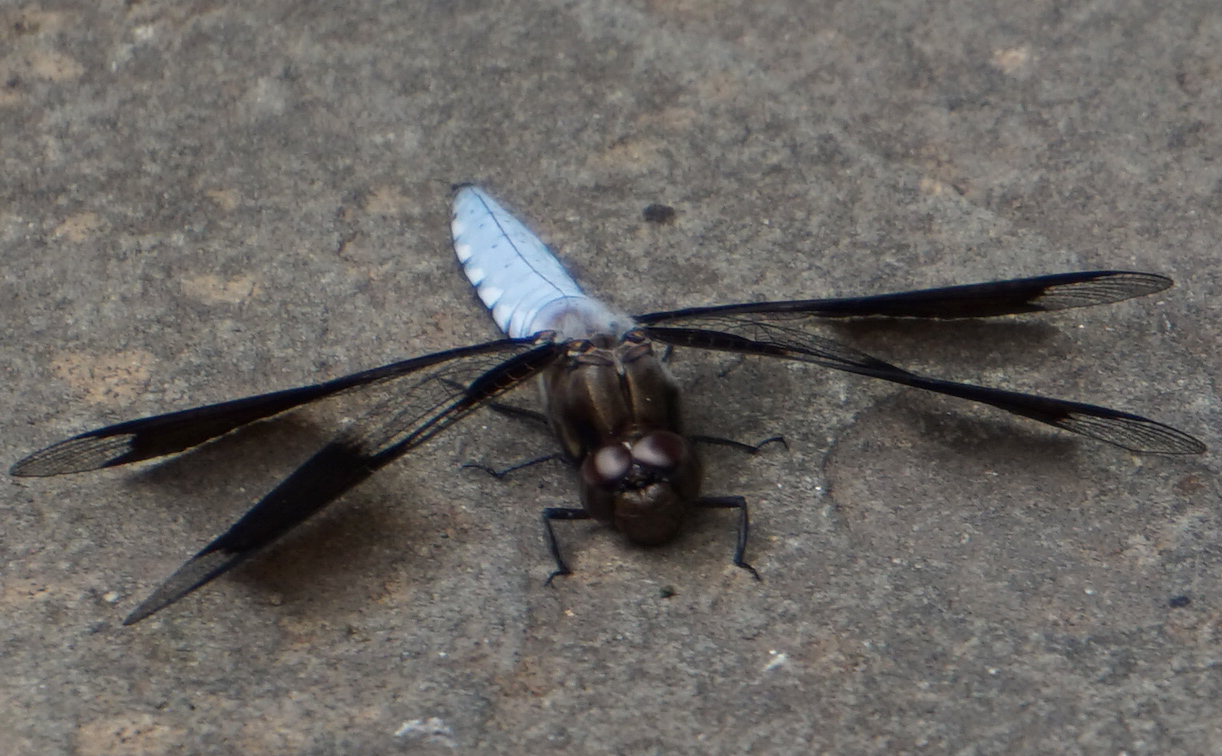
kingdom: Animalia
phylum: Arthropoda
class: Insecta
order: Odonata
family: Libellulidae
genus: Plathemis
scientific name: Plathemis lydia
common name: Common whitetail
